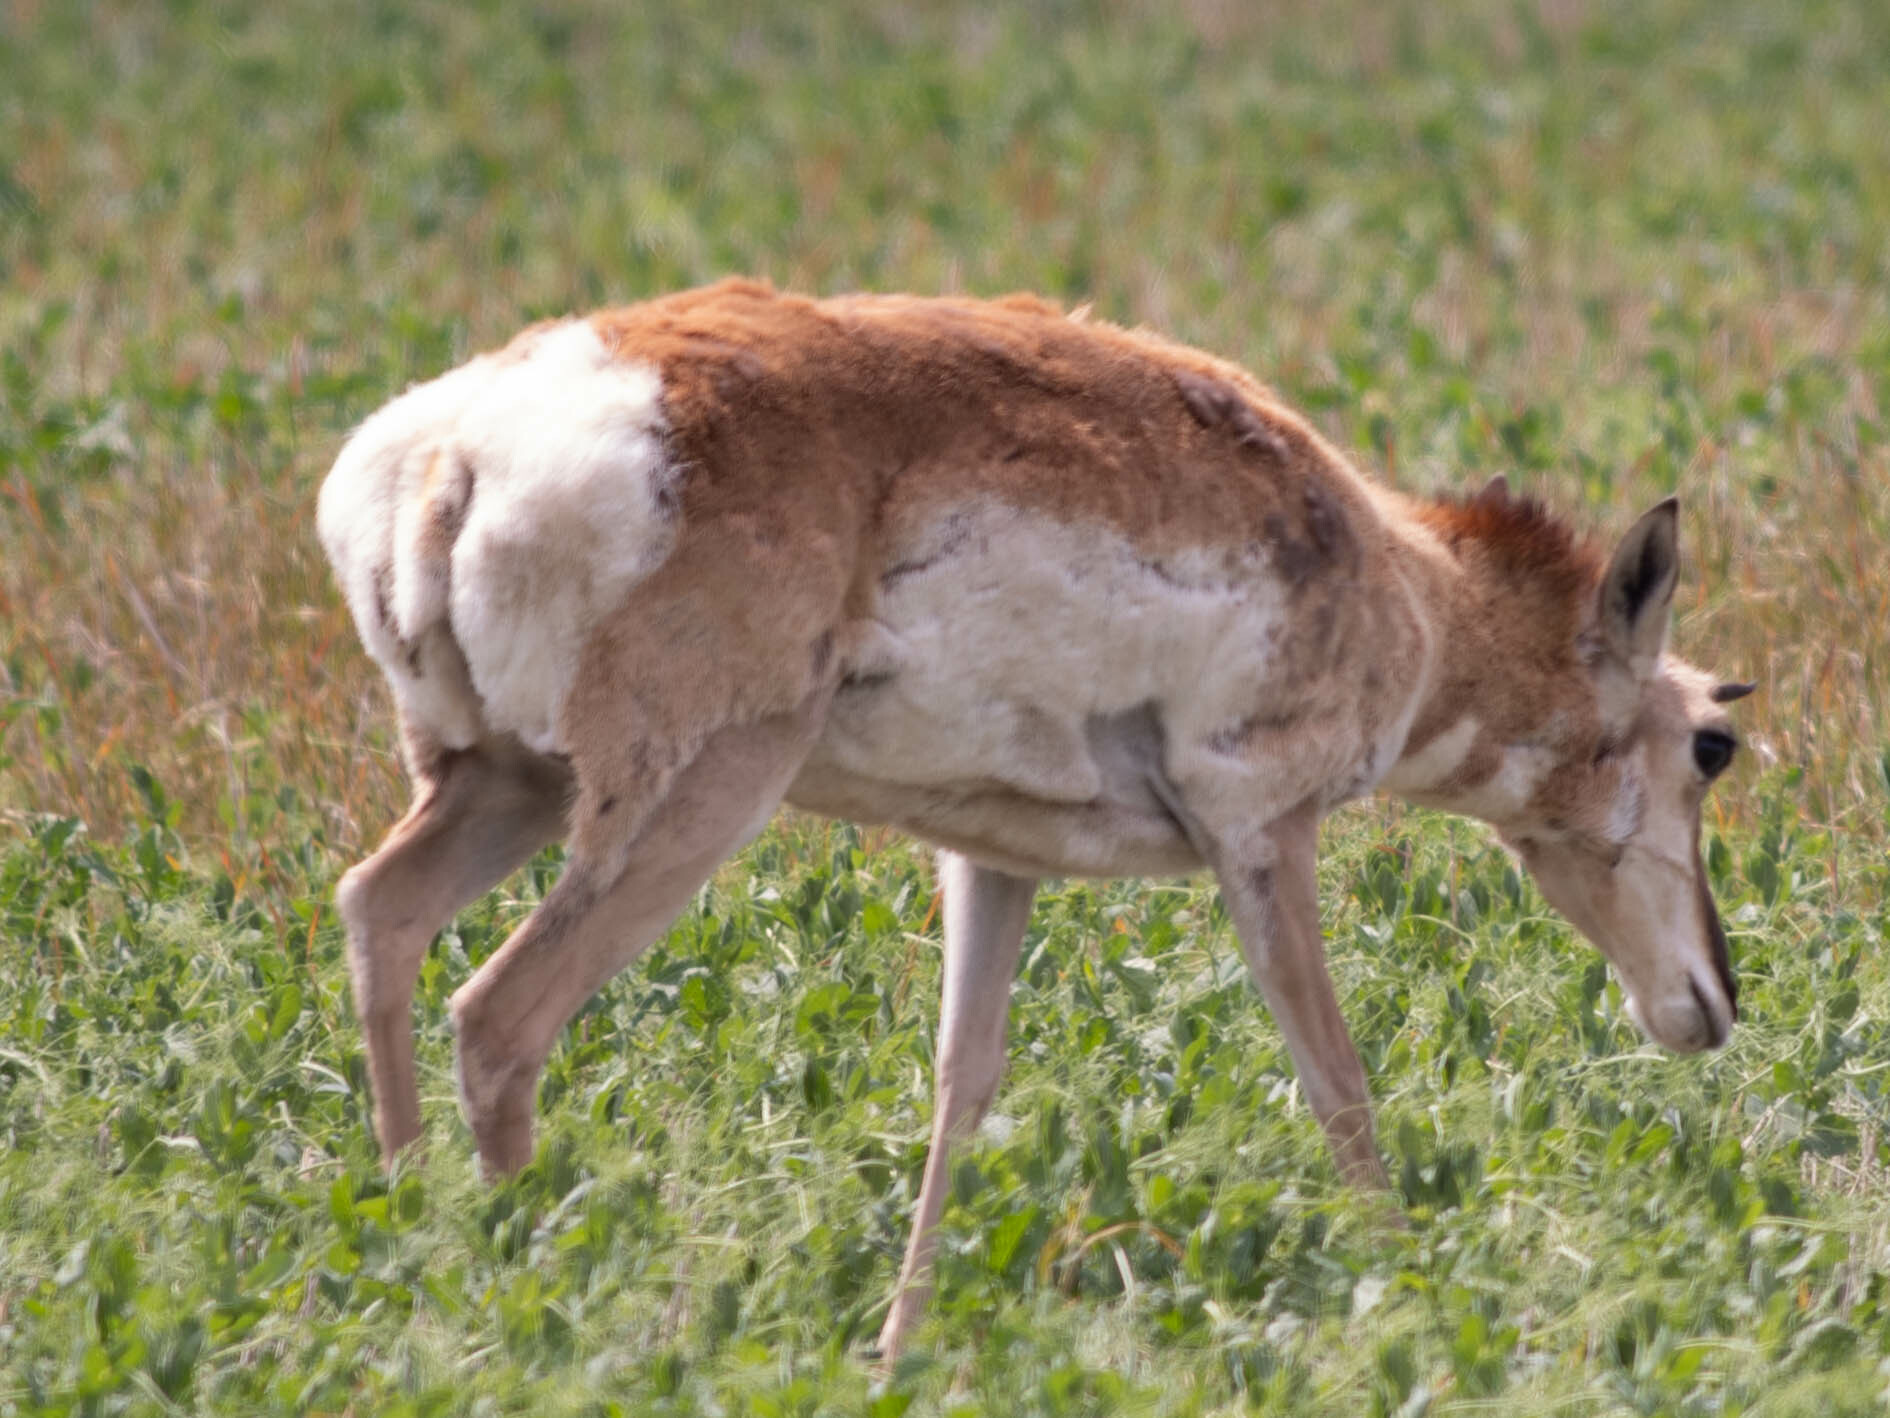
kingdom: Animalia
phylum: Chordata
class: Mammalia
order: Artiodactyla
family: Antilocapridae
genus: Antilocapra
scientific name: Antilocapra americana
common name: Pronghorn
